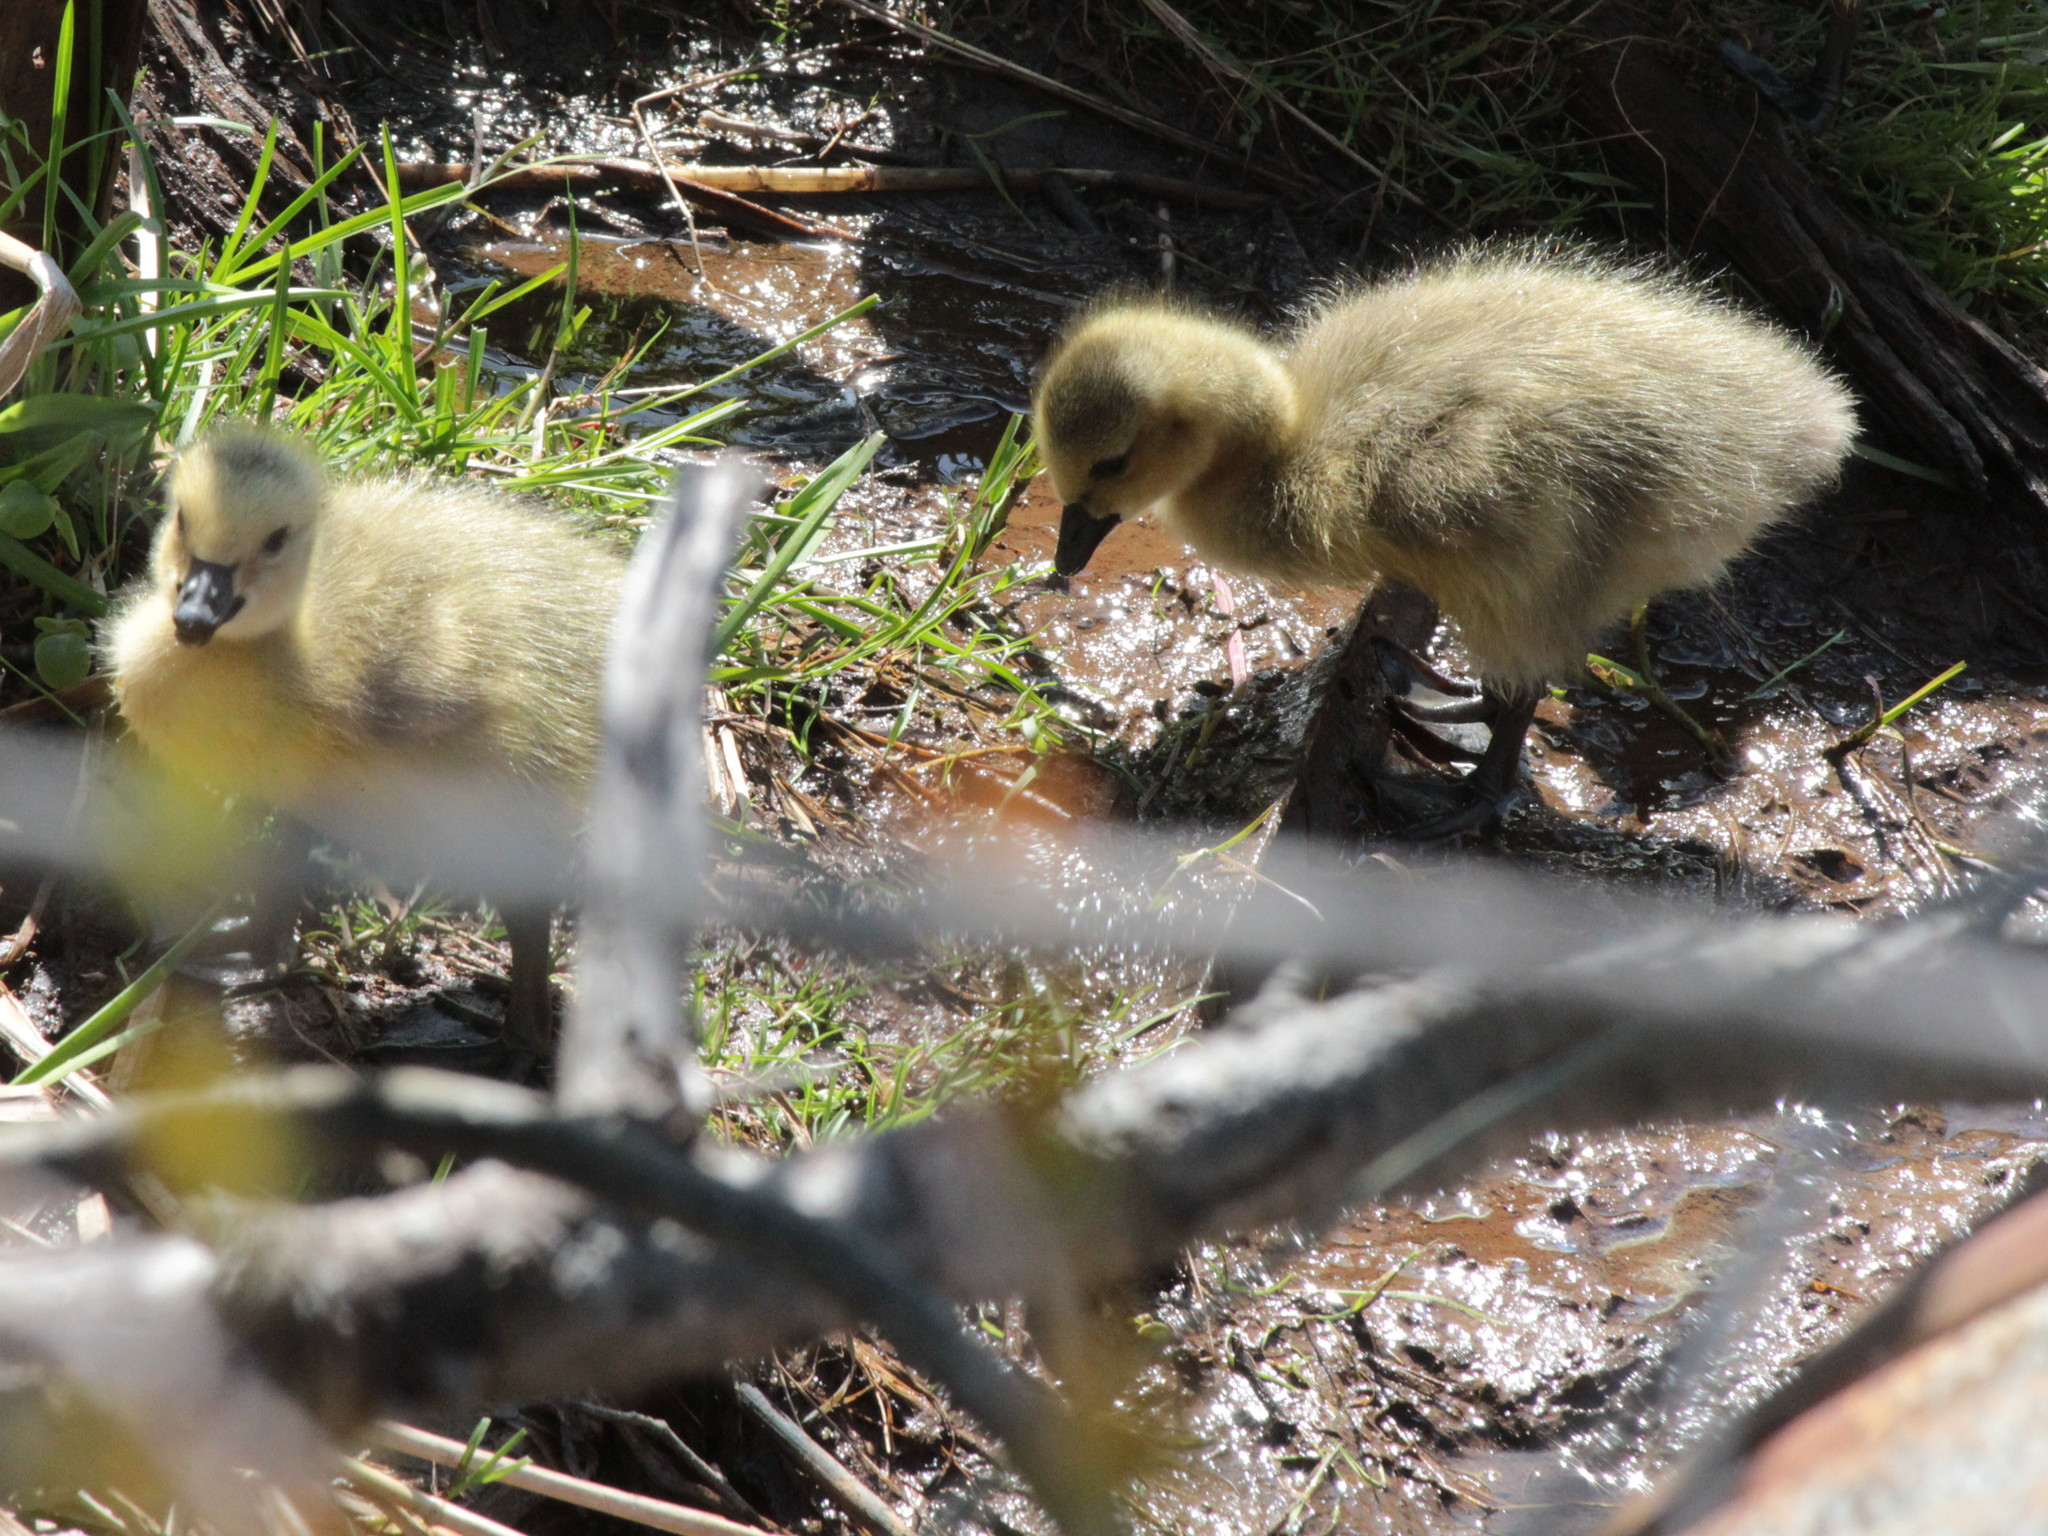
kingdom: Animalia
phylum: Chordata
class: Aves
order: Anseriformes
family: Anatidae
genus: Branta
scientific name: Branta canadensis
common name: Canada goose
